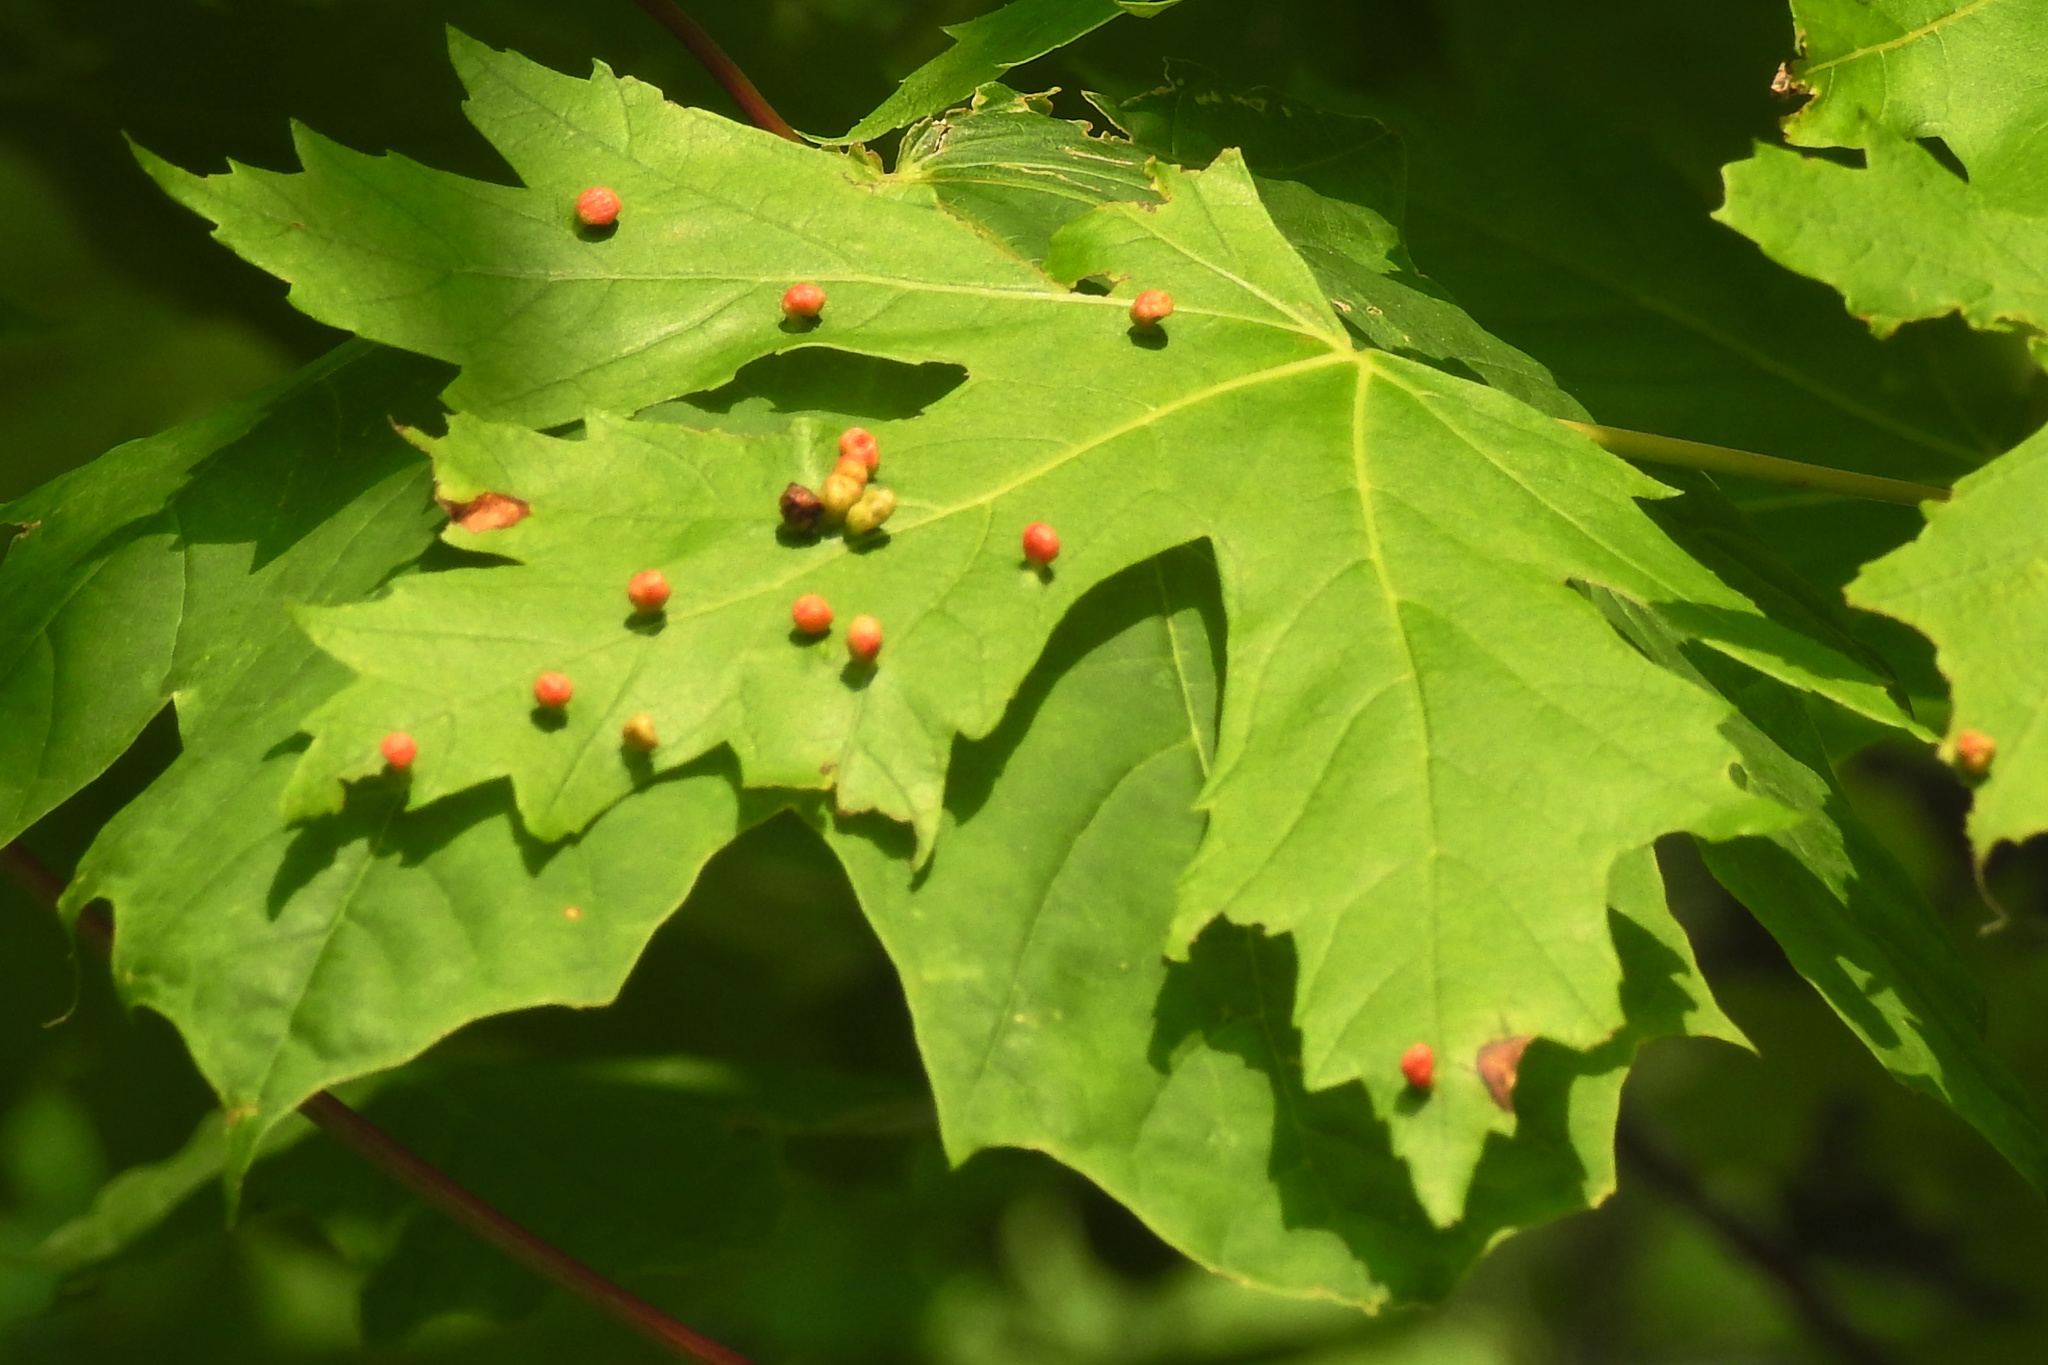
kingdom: Animalia
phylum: Arthropoda
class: Arachnida
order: Trombidiformes
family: Eriophyidae
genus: Vasates
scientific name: Vasates quadripedes
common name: Maple bladder gall mite
